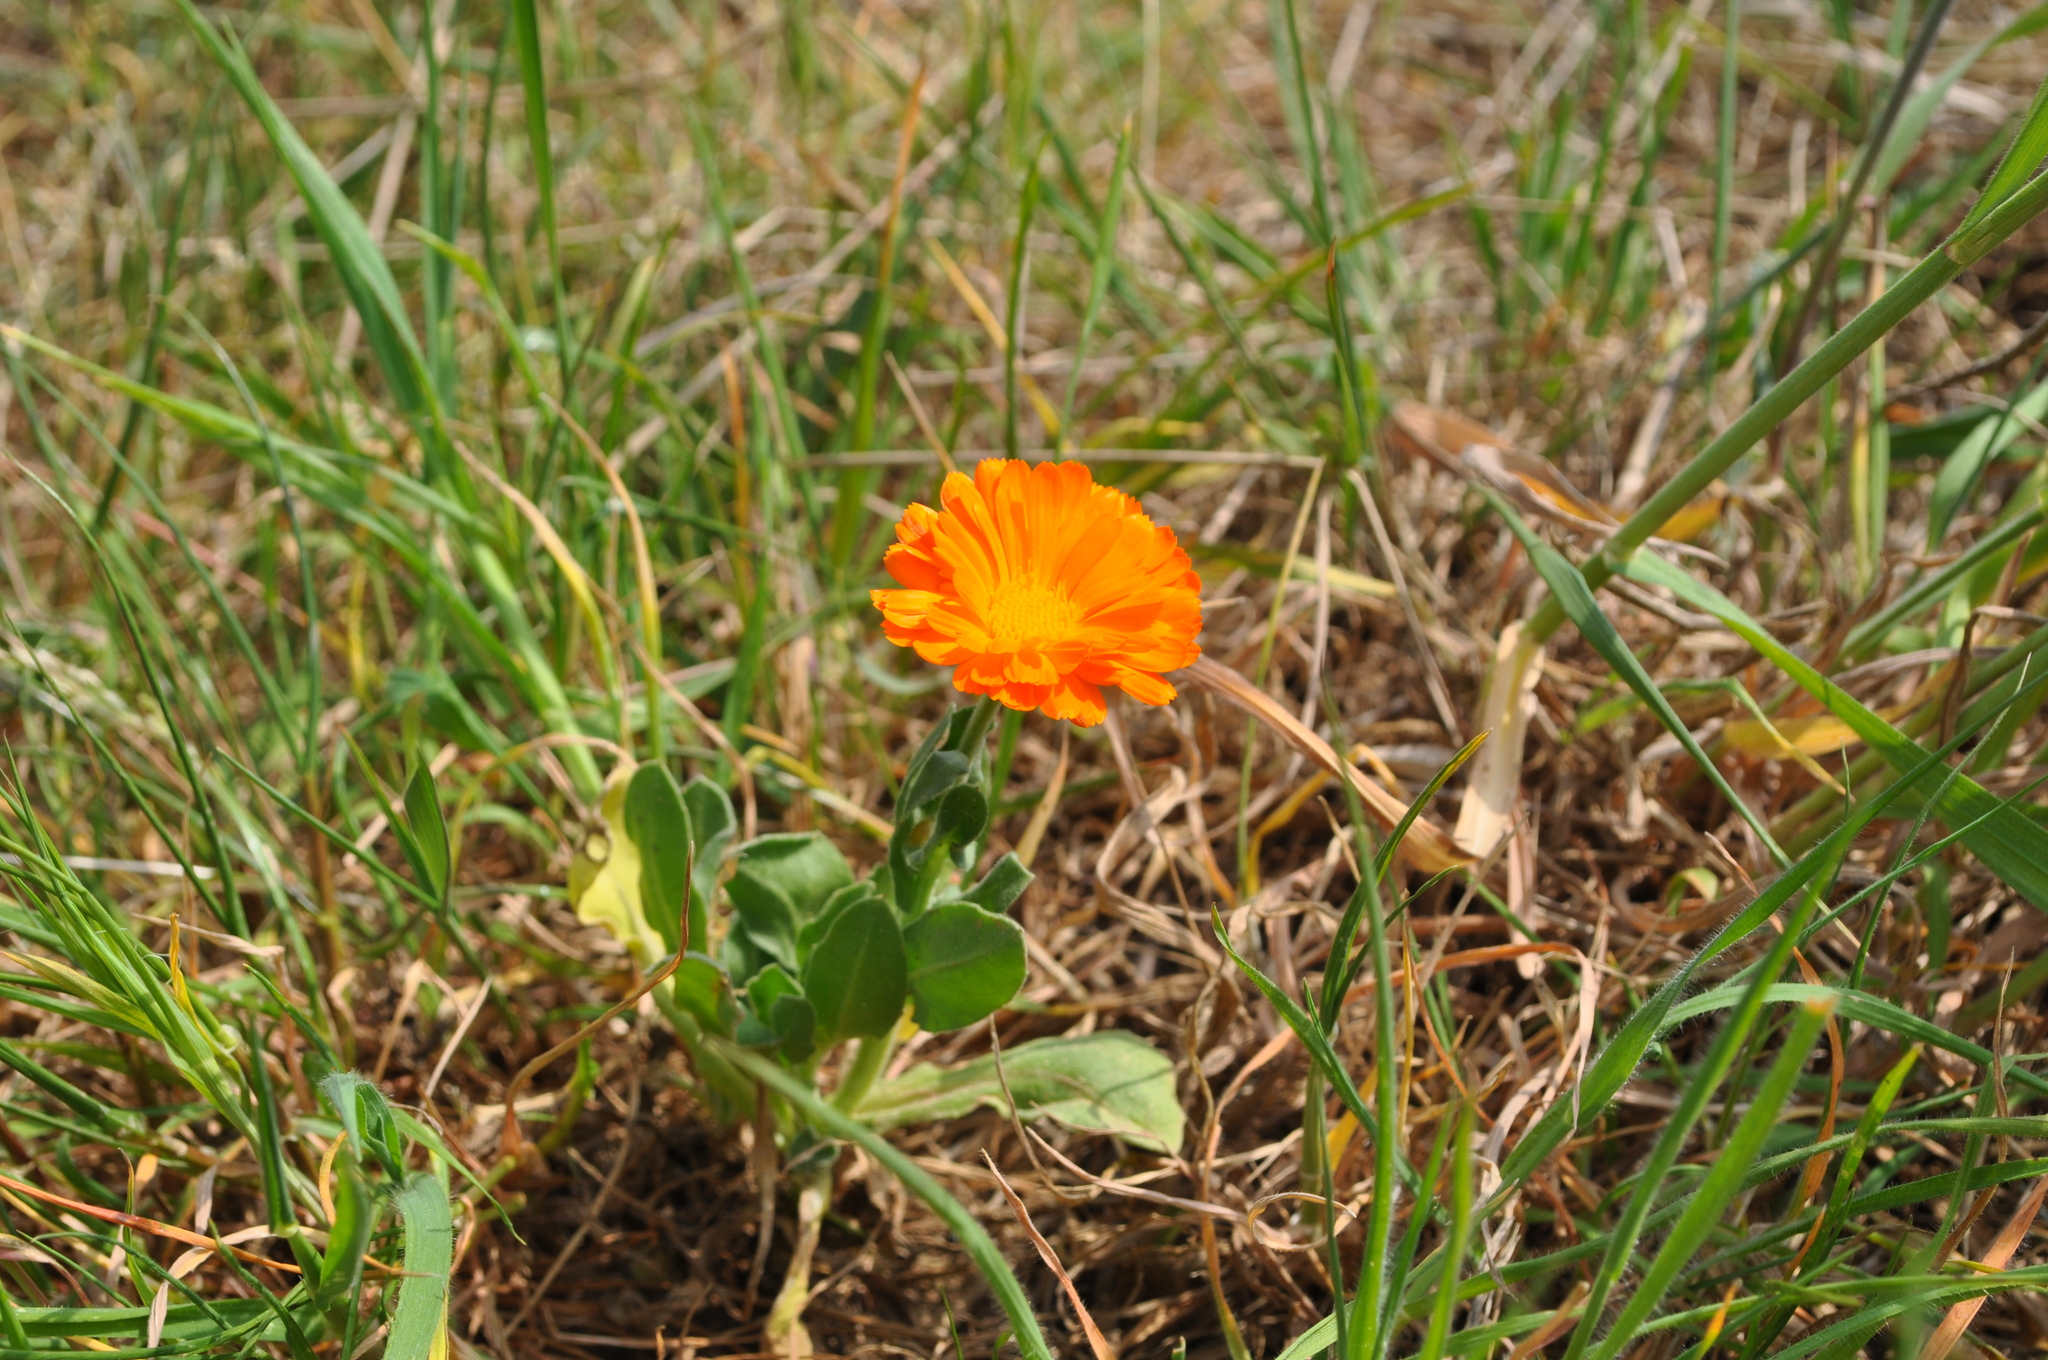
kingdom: Plantae
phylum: Tracheophyta
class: Magnoliopsida
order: Asterales
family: Asteraceae
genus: Calendula
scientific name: Calendula officinalis
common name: Pot marigold
